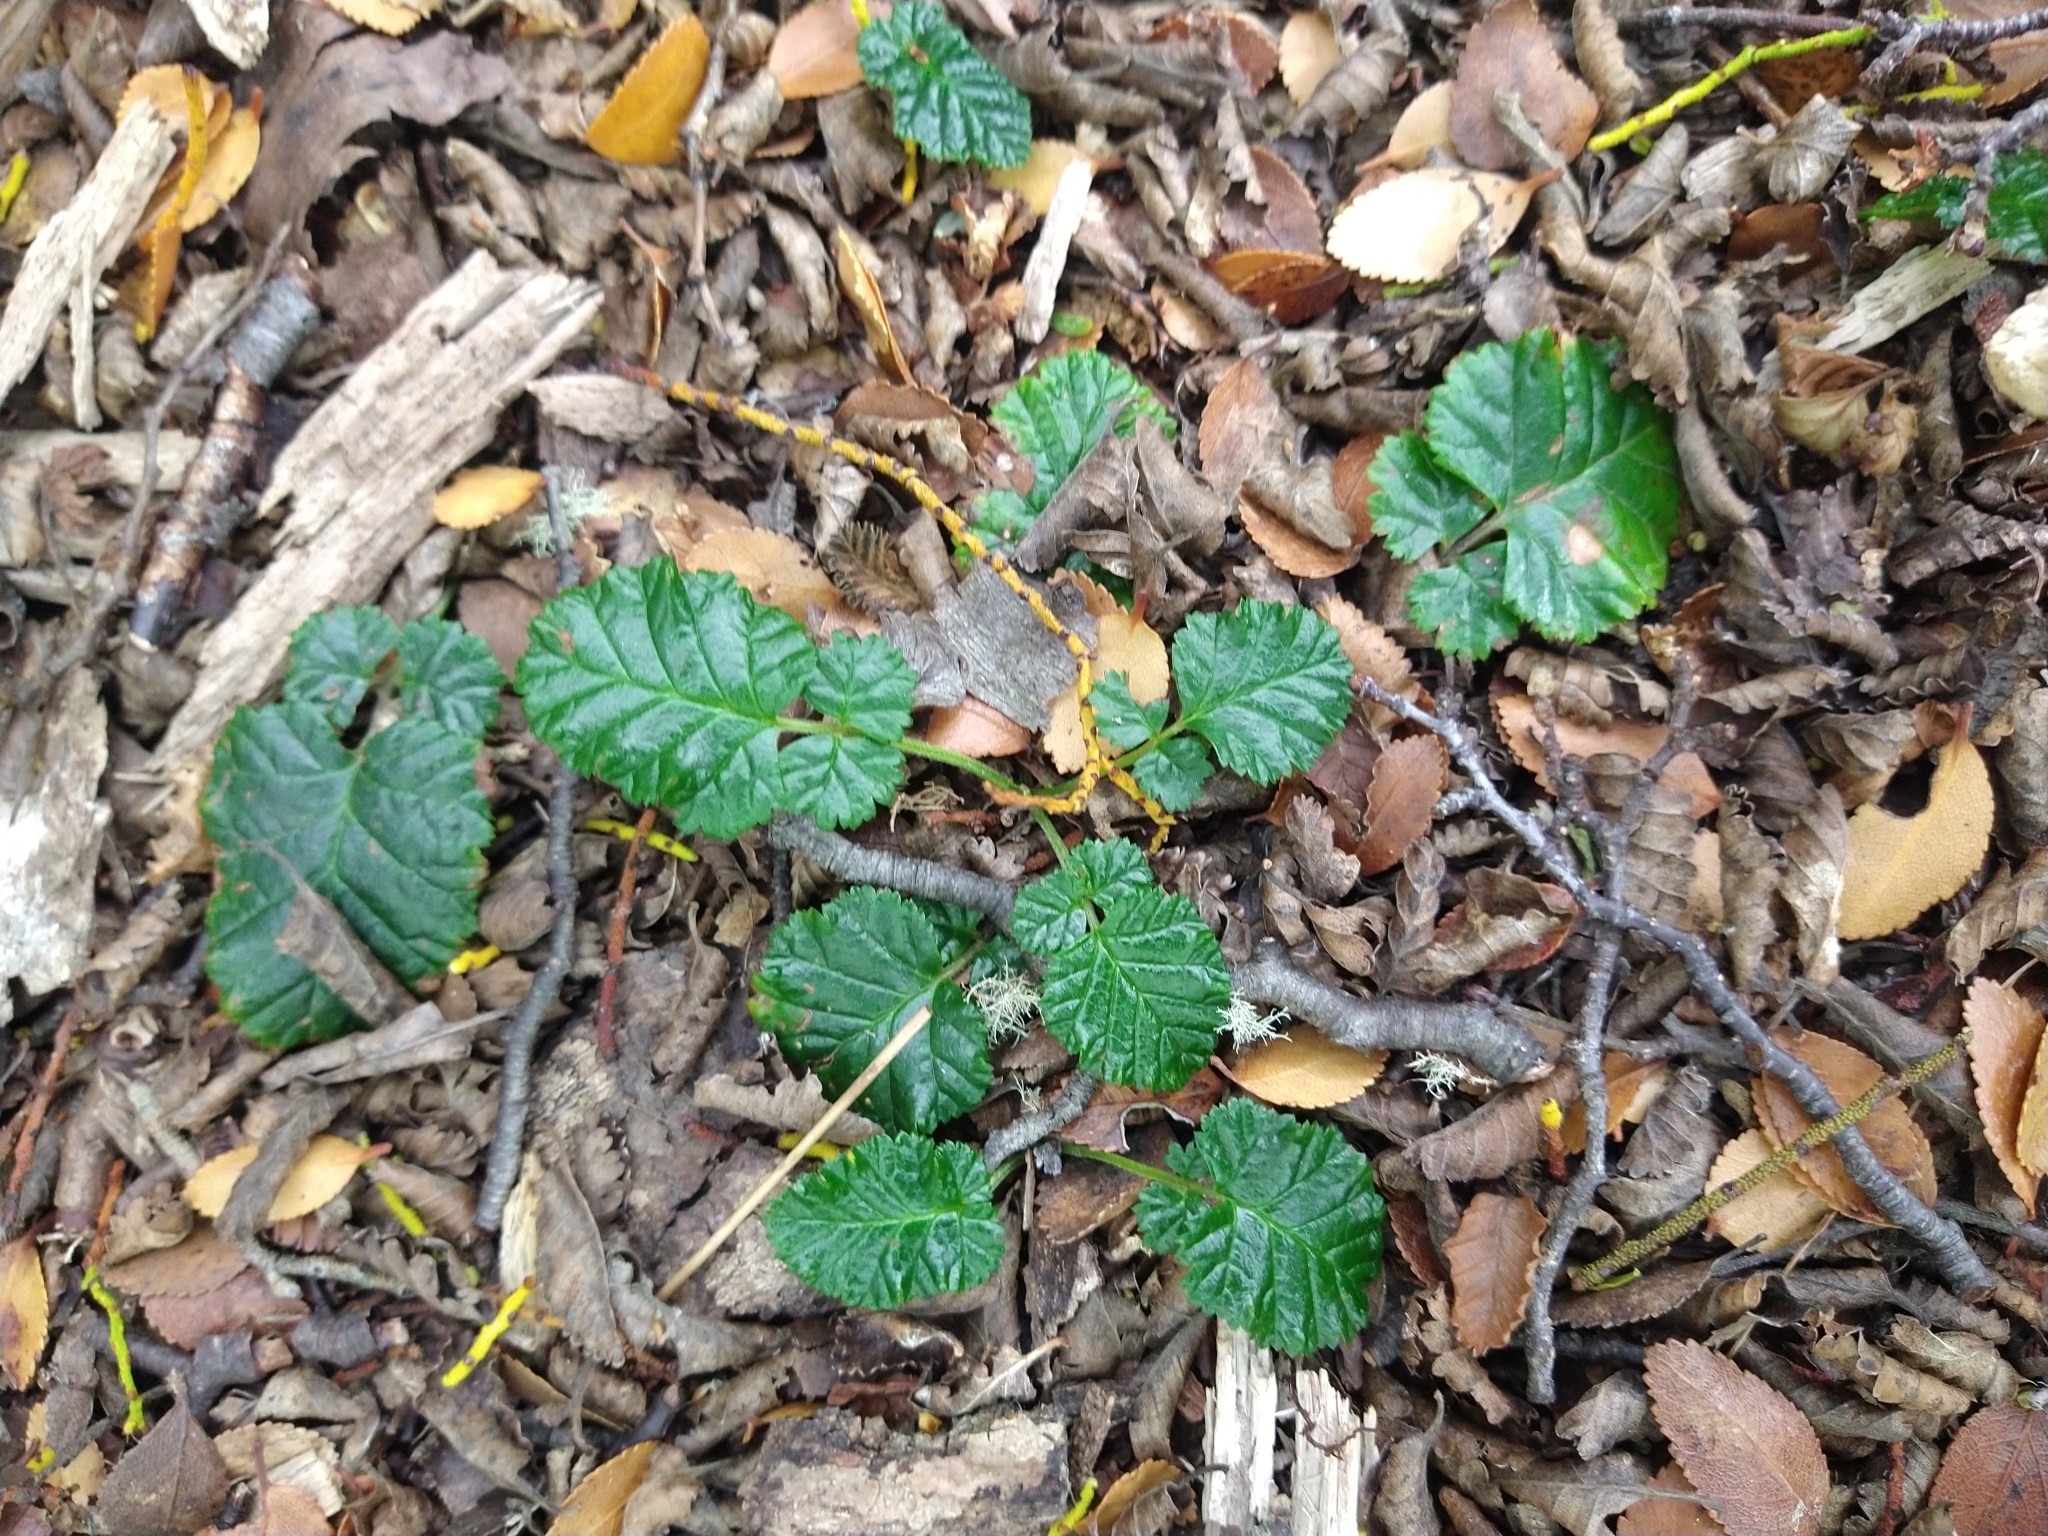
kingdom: Plantae
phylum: Tracheophyta
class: Magnoliopsida
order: Rosales
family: Rosaceae
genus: Rubus
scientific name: Rubus geoides
